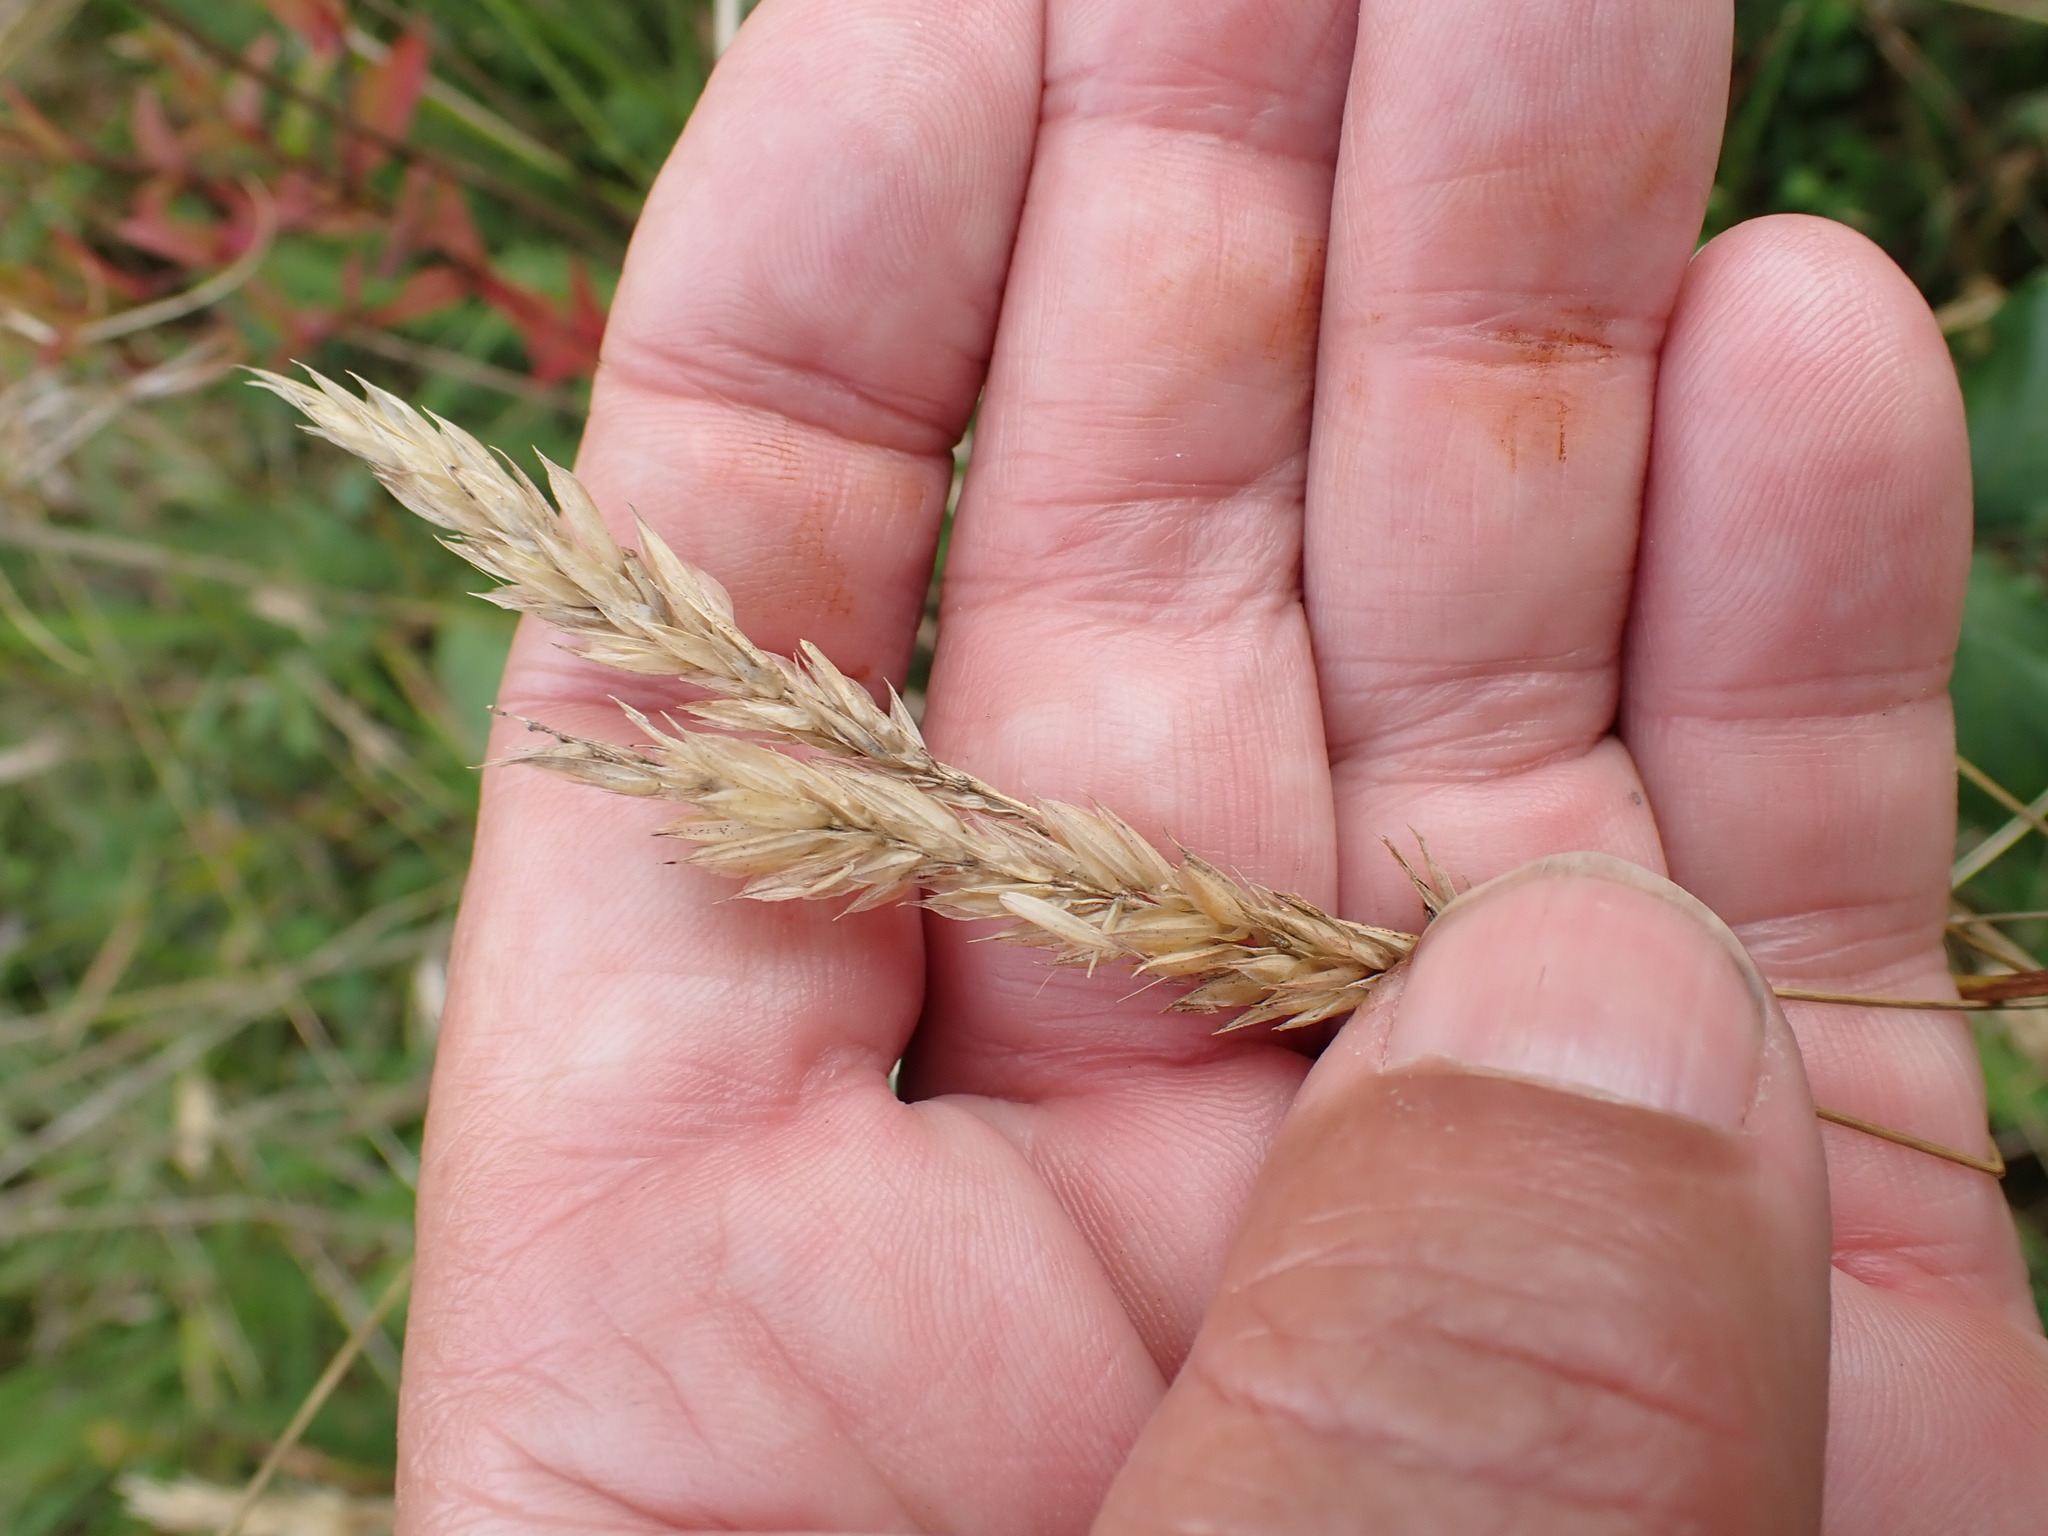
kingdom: Plantae
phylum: Tracheophyta
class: Liliopsida
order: Poales
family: Poaceae
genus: Anthoxanthum
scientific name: Anthoxanthum odoratum
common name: Sweet vernalgrass
